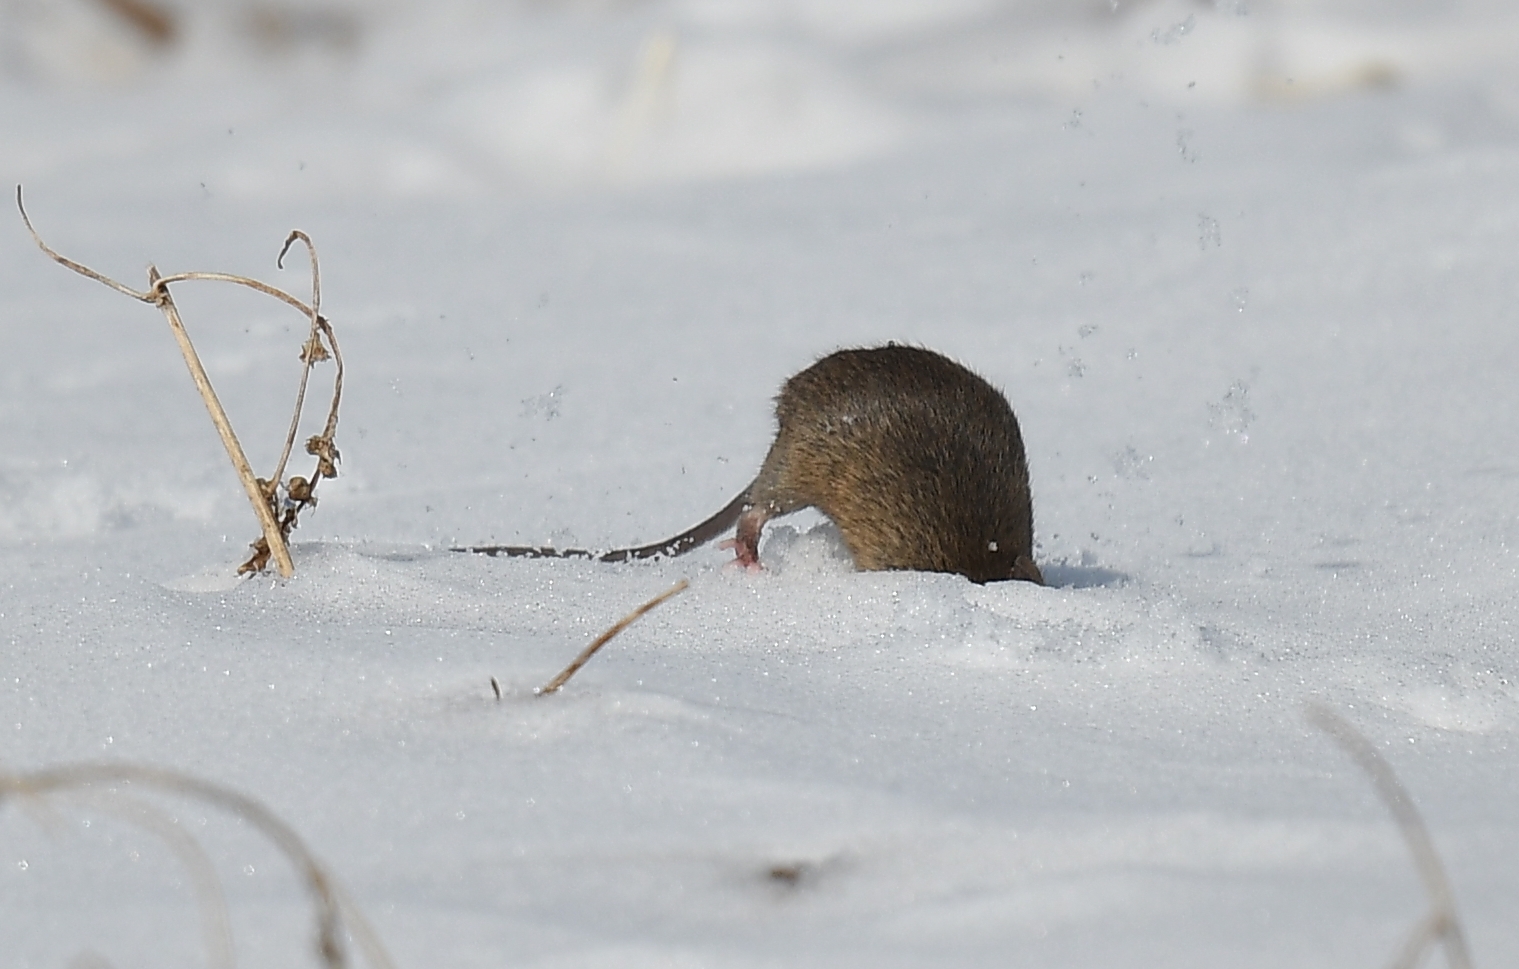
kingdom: Animalia
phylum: Chordata
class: Mammalia
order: Rodentia
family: Muridae
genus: Mus
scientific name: Mus musculus
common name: House mouse
